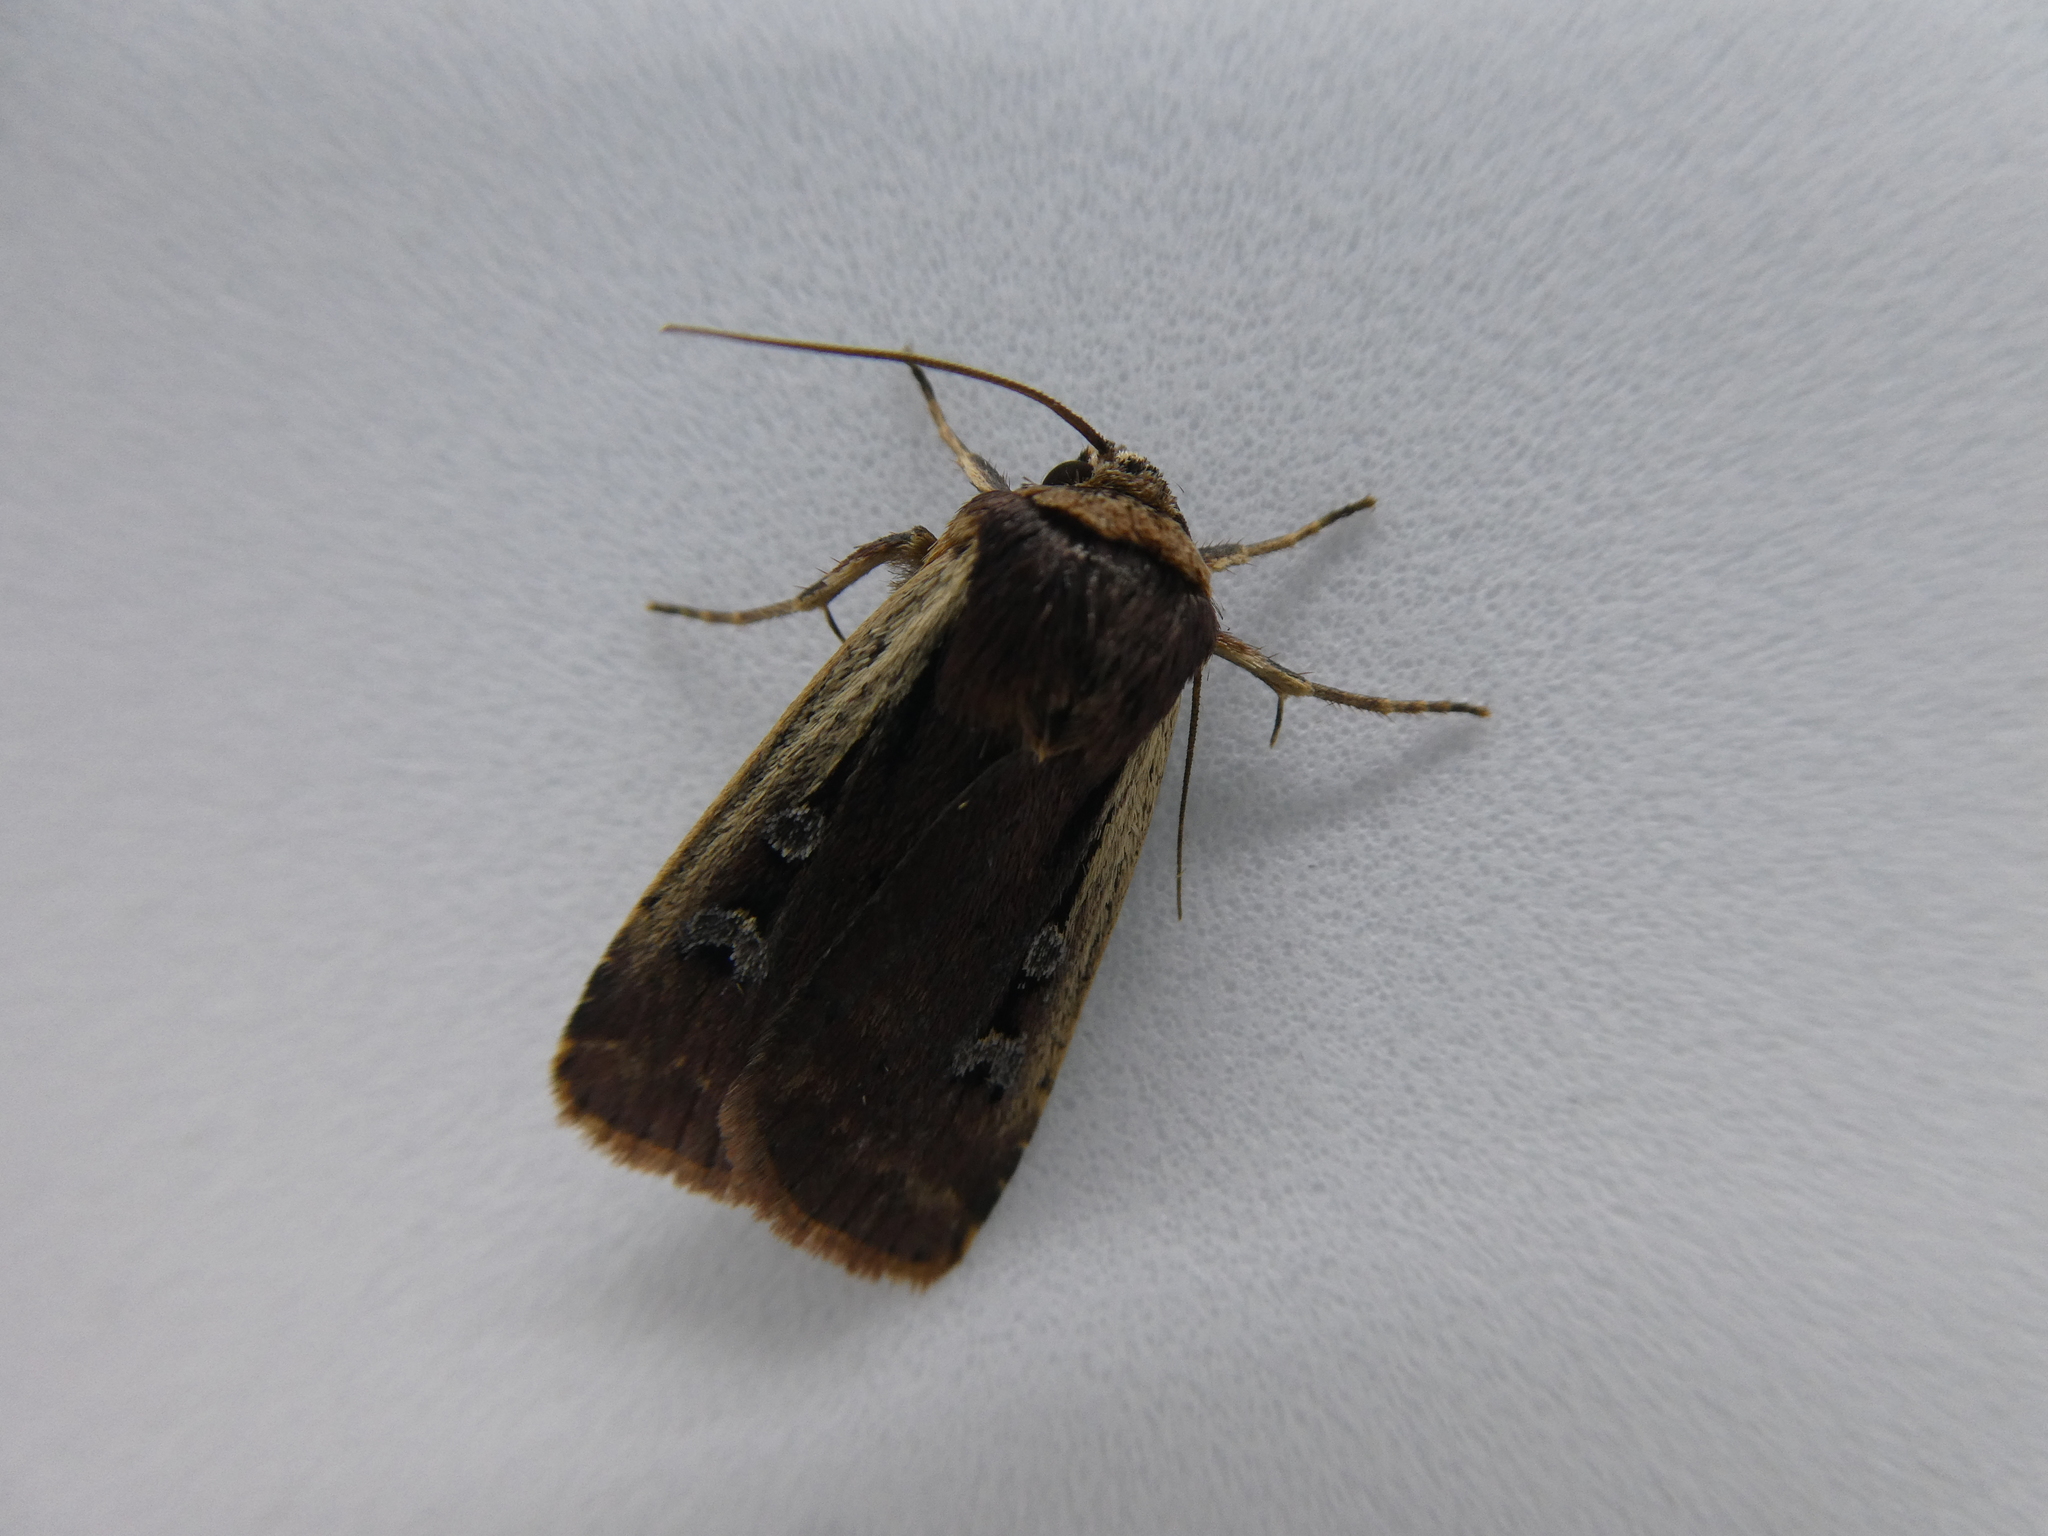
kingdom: Animalia
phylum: Arthropoda
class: Insecta
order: Lepidoptera
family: Noctuidae
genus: Ochropleura
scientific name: Ochropleura implecta
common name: Flame-shouldered dart
